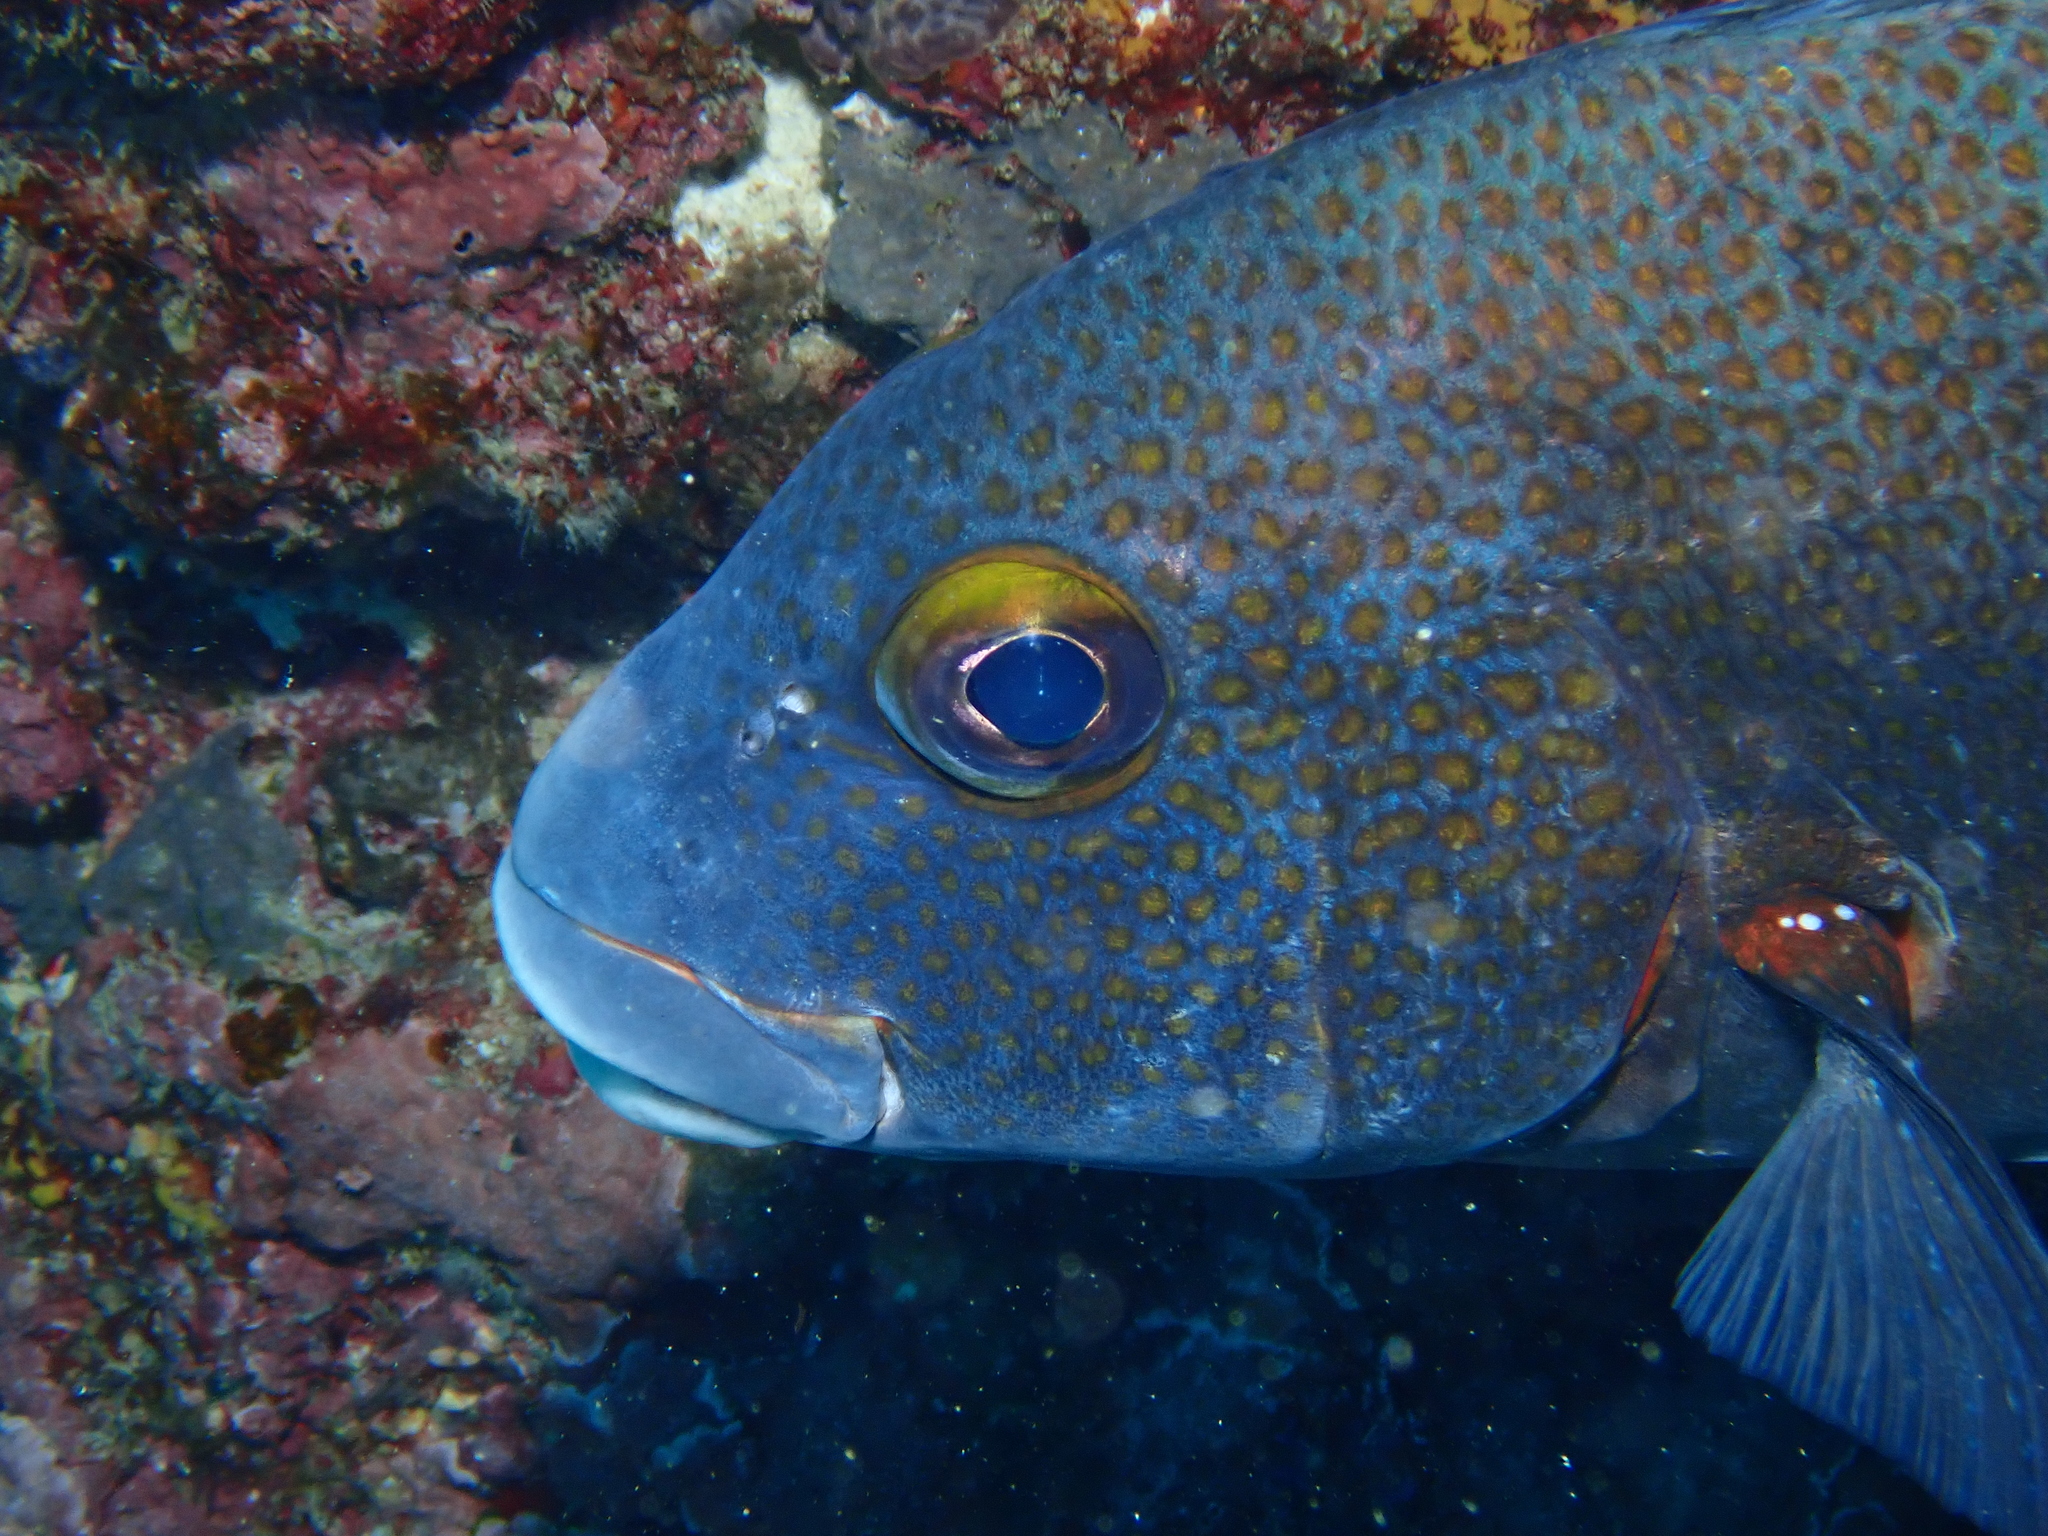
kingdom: Animalia
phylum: Chordata
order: Perciformes
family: Haemulidae
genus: Plectorhinchus
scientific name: Plectorhinchus flavomaculatus
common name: Netted sweetlips
